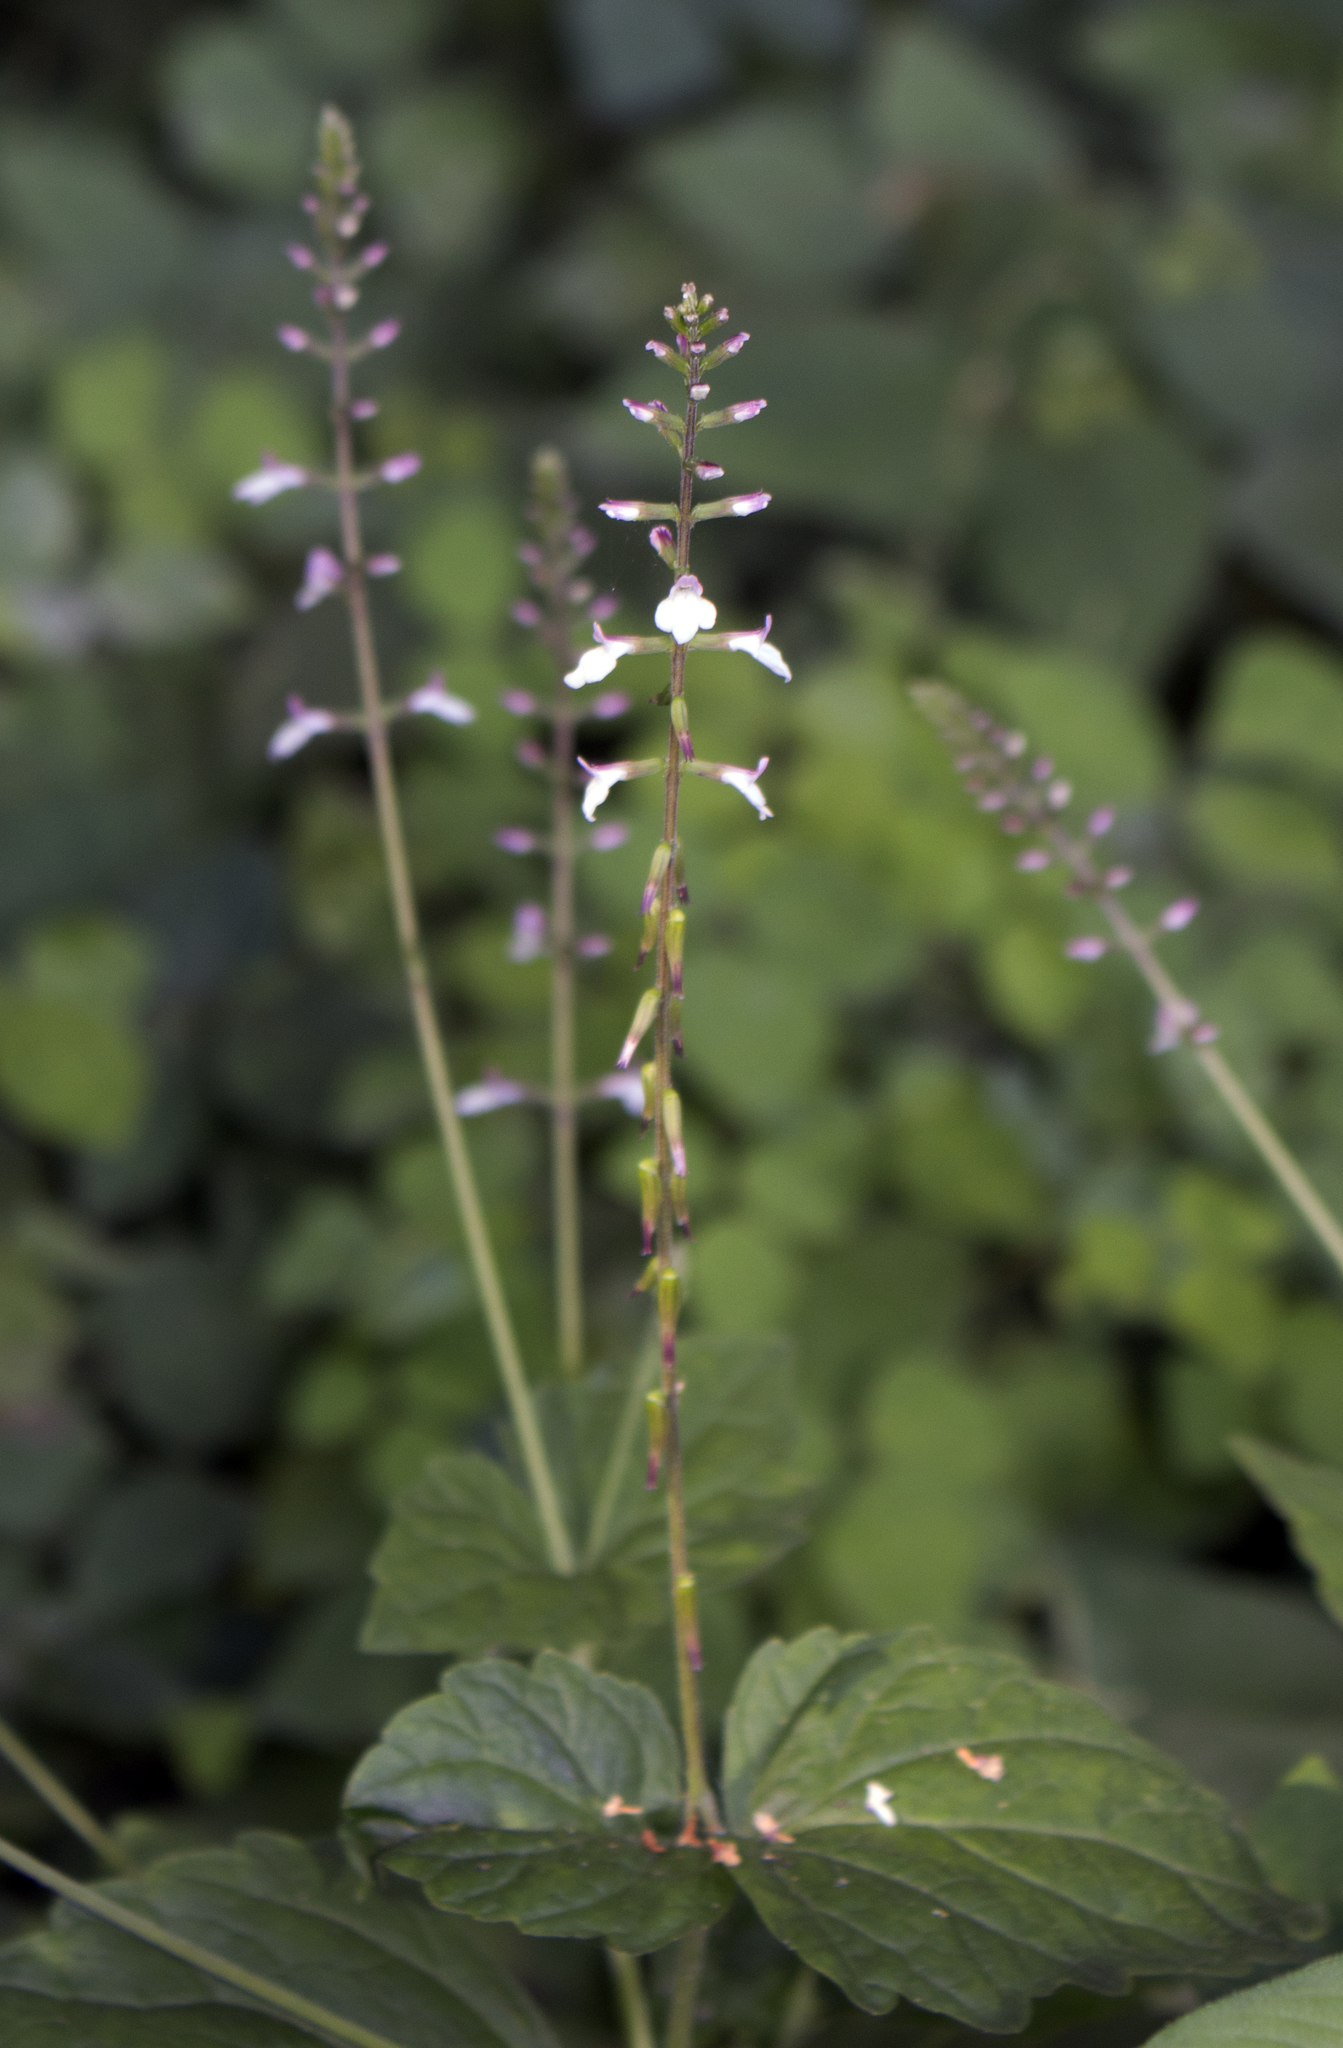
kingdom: Plantae
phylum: Tracheophyta
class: Magnoliopsida
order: Lamiales
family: Phrymaceae
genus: Phryma
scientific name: Phryma leptostachya
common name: American lopseed
